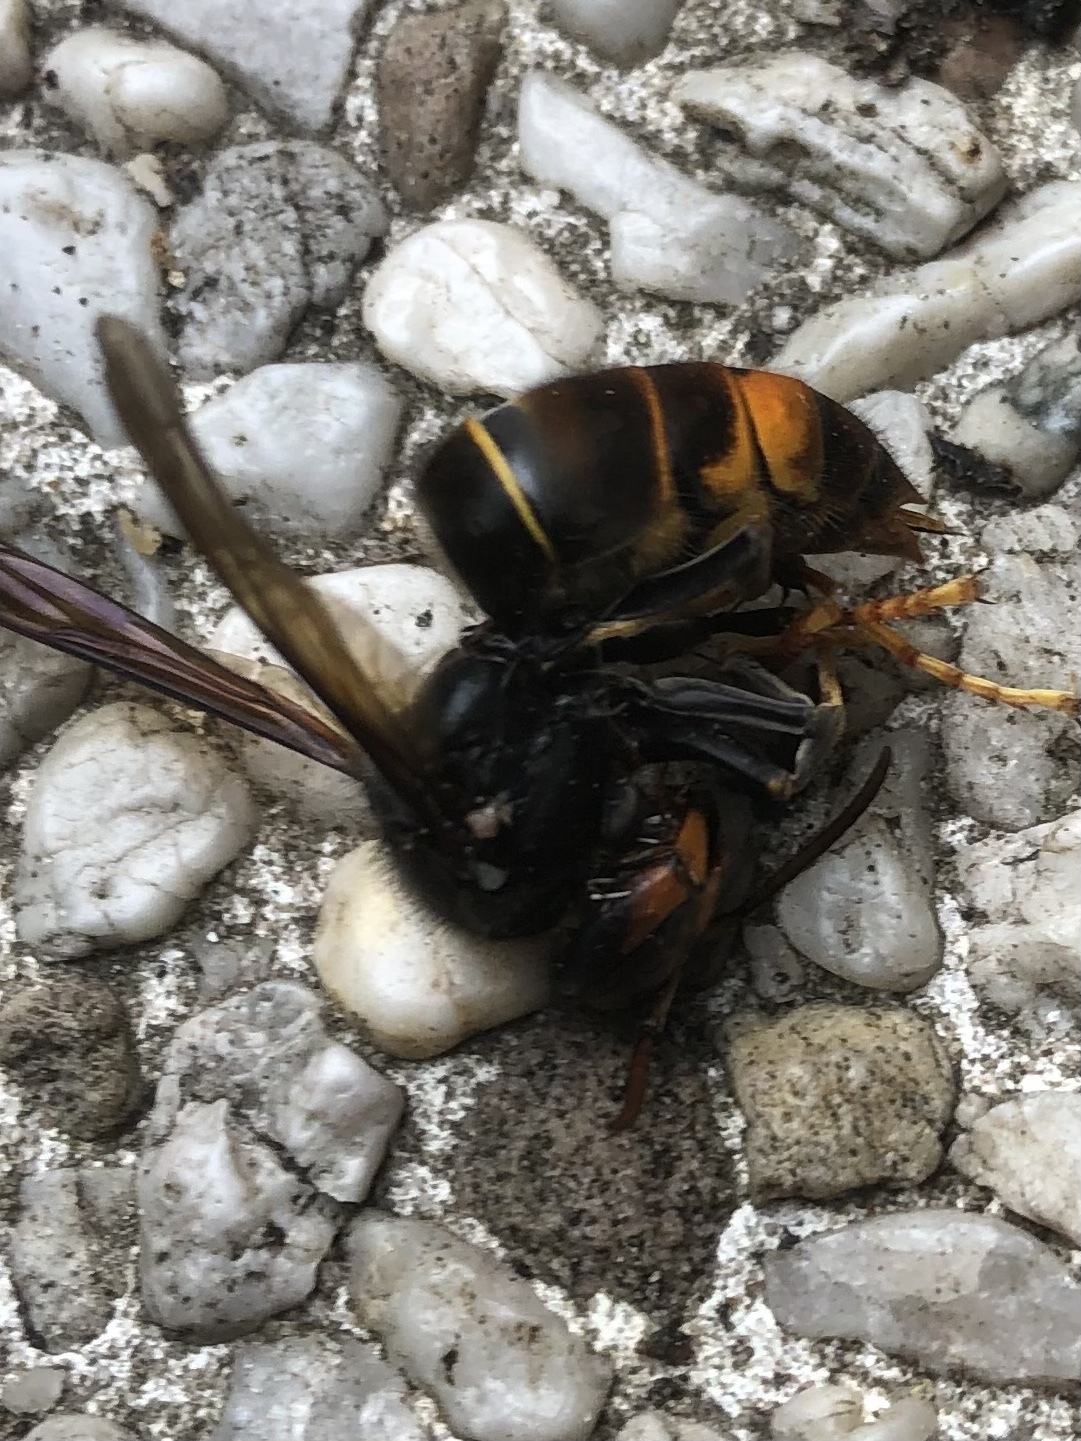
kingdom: Animalia
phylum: Arthropoda
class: Insecta
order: Hymenoptera
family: Vespidae
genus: Vespa
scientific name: Vespa velutina
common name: Asian hornet
